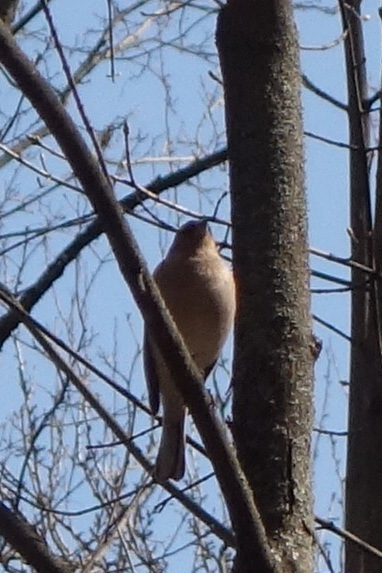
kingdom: Animalia
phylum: Chordata
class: Aves
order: Passeriformes
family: Fringillidae
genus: Fringilla
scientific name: Fringilla coelebs
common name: Common chaffinch
